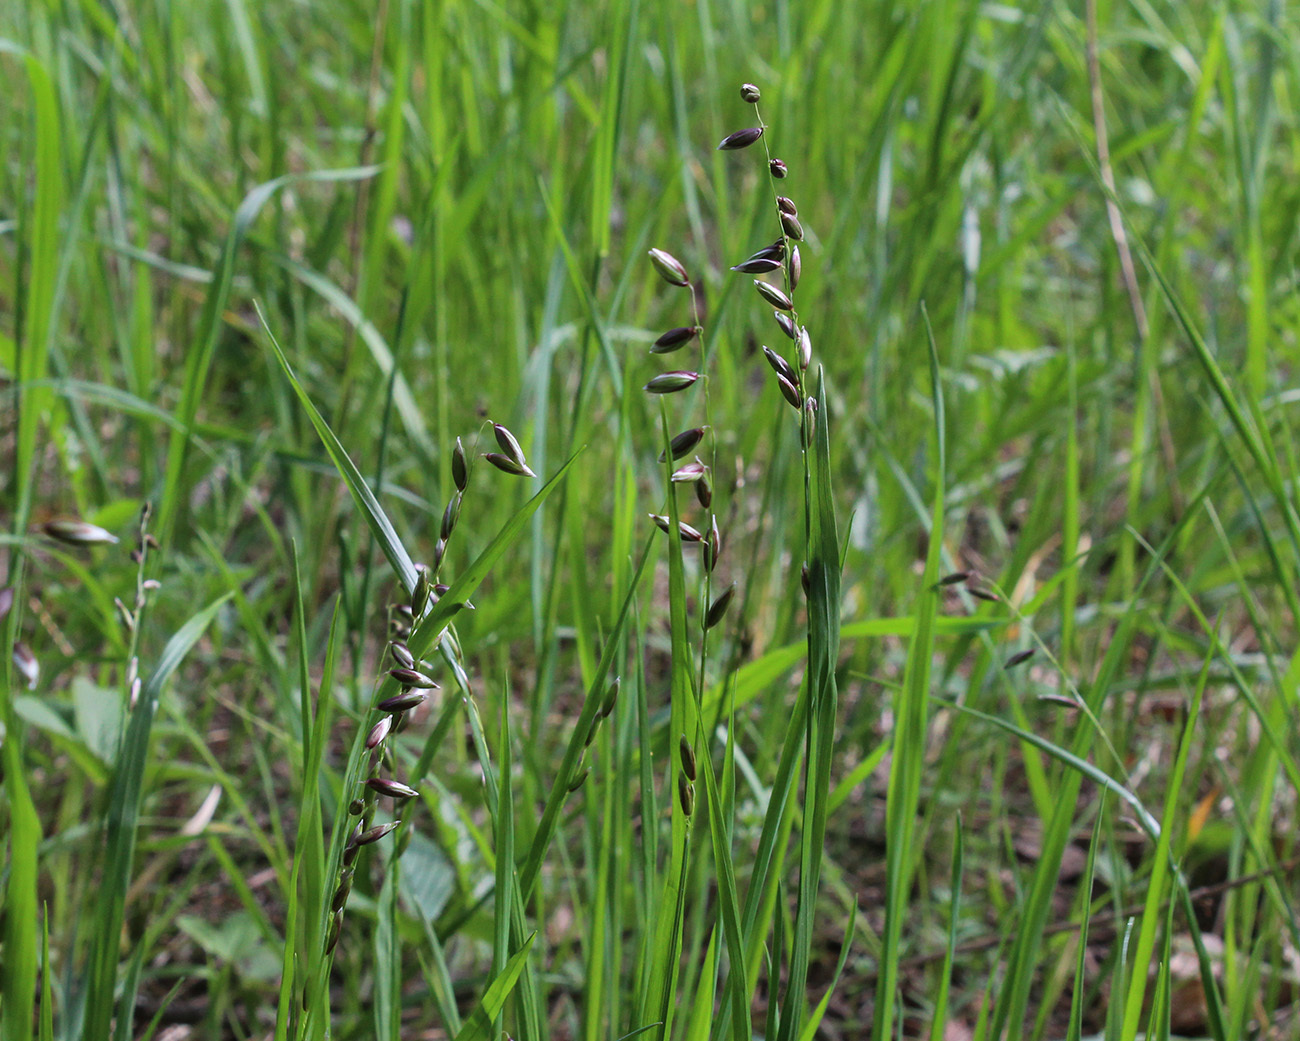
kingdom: Plantae
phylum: Tracheophyta
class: Liliopsida
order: Poales
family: Poaceae
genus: Melica
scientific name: Melica nutans
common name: Mountain melick
